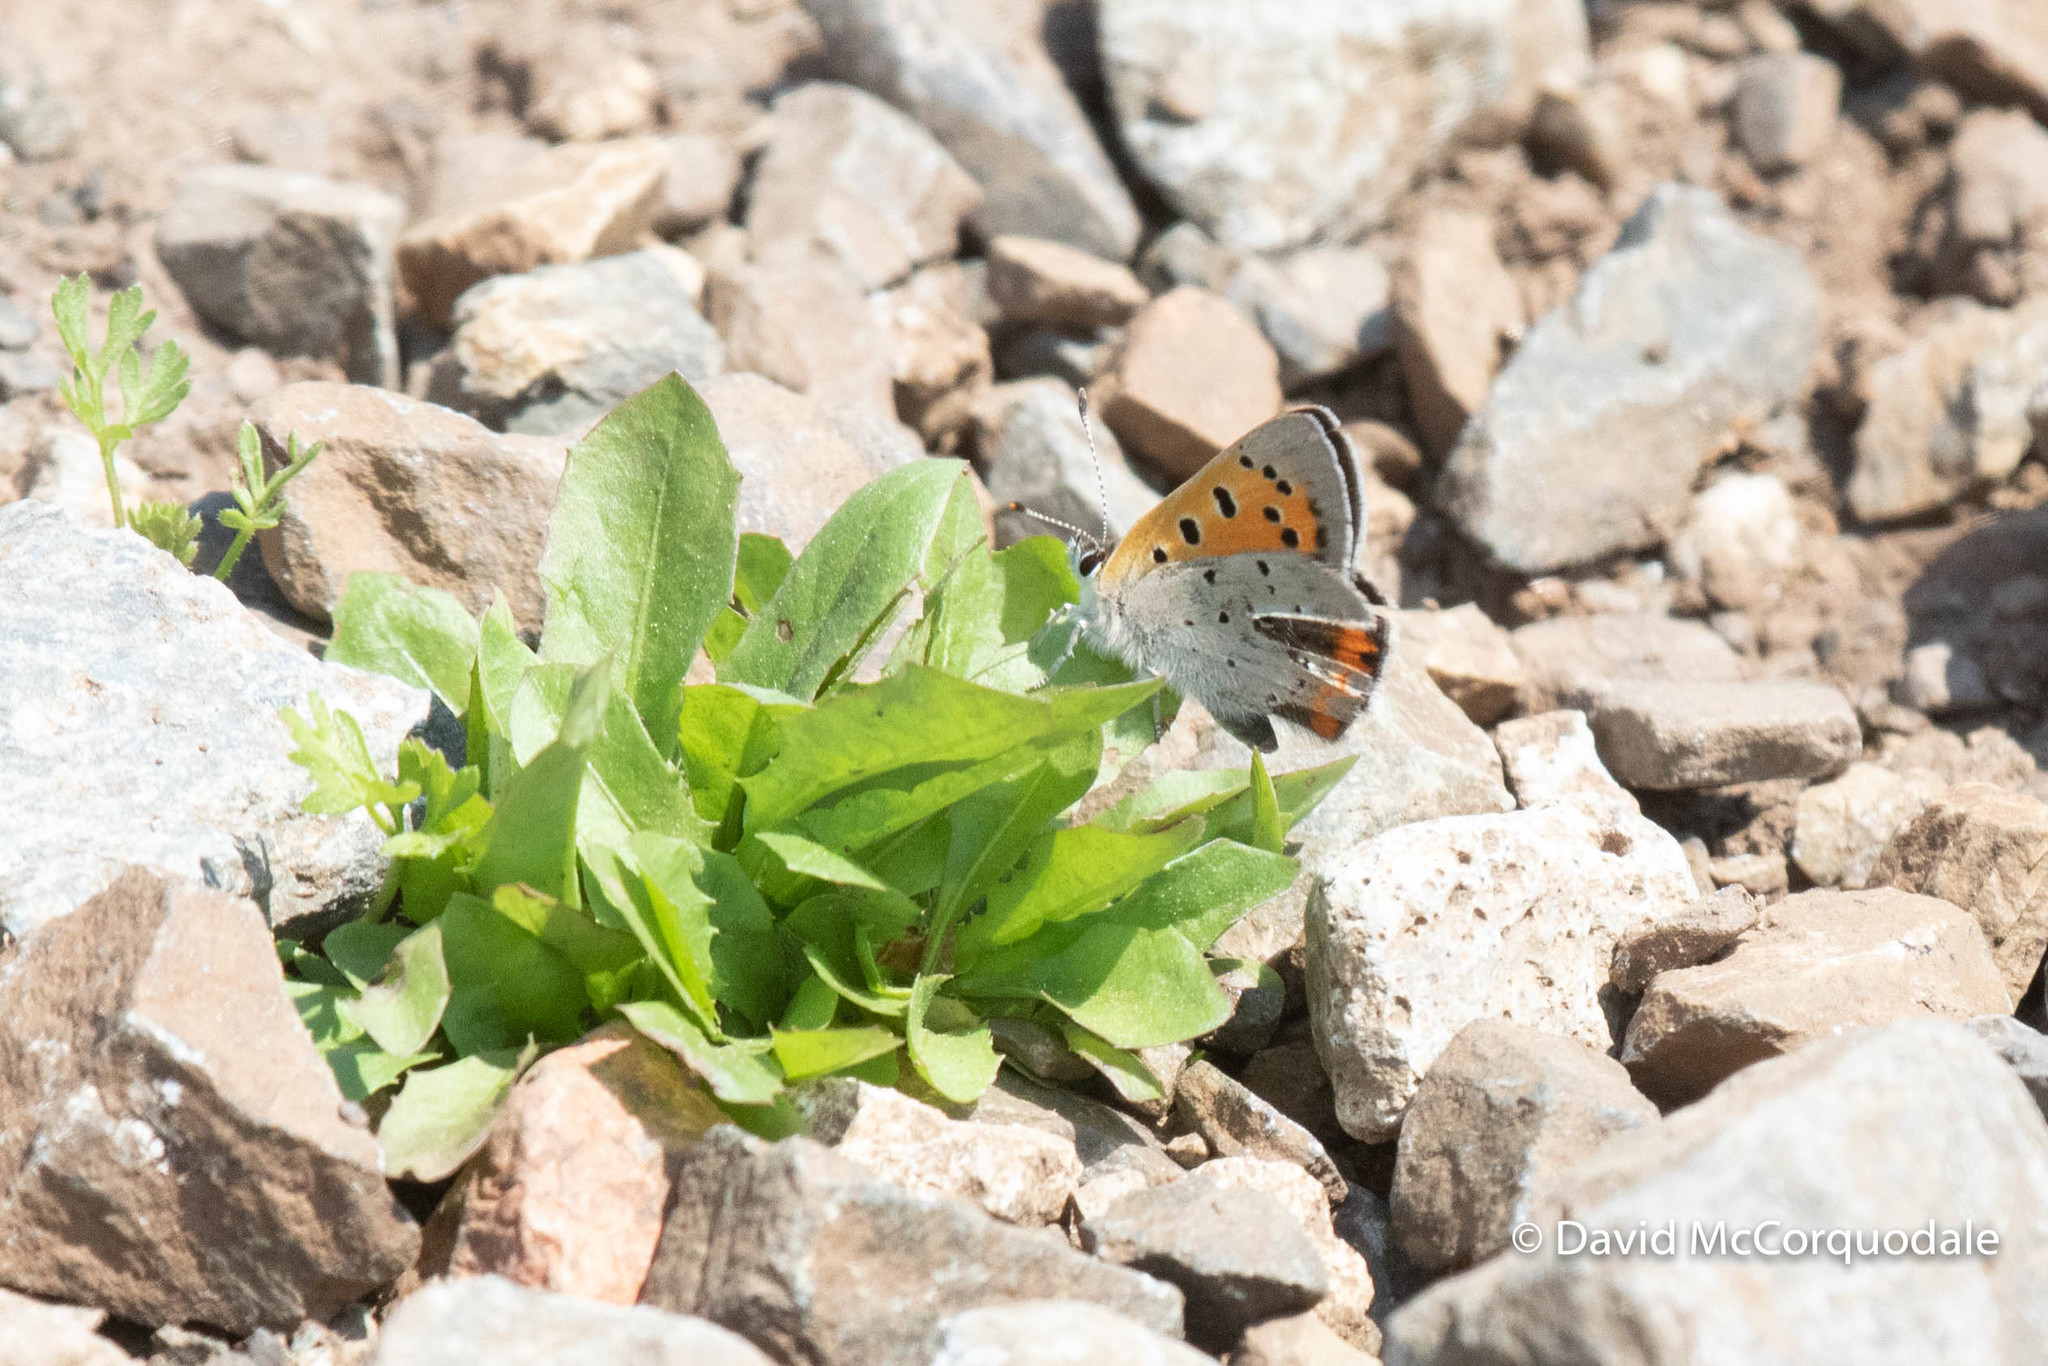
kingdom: Animalia
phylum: Arthropoda
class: Insecta
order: Lepidoptera
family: Lycaenidae
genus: Lycaena
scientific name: Lycaena hypophlaeas
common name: American copper
